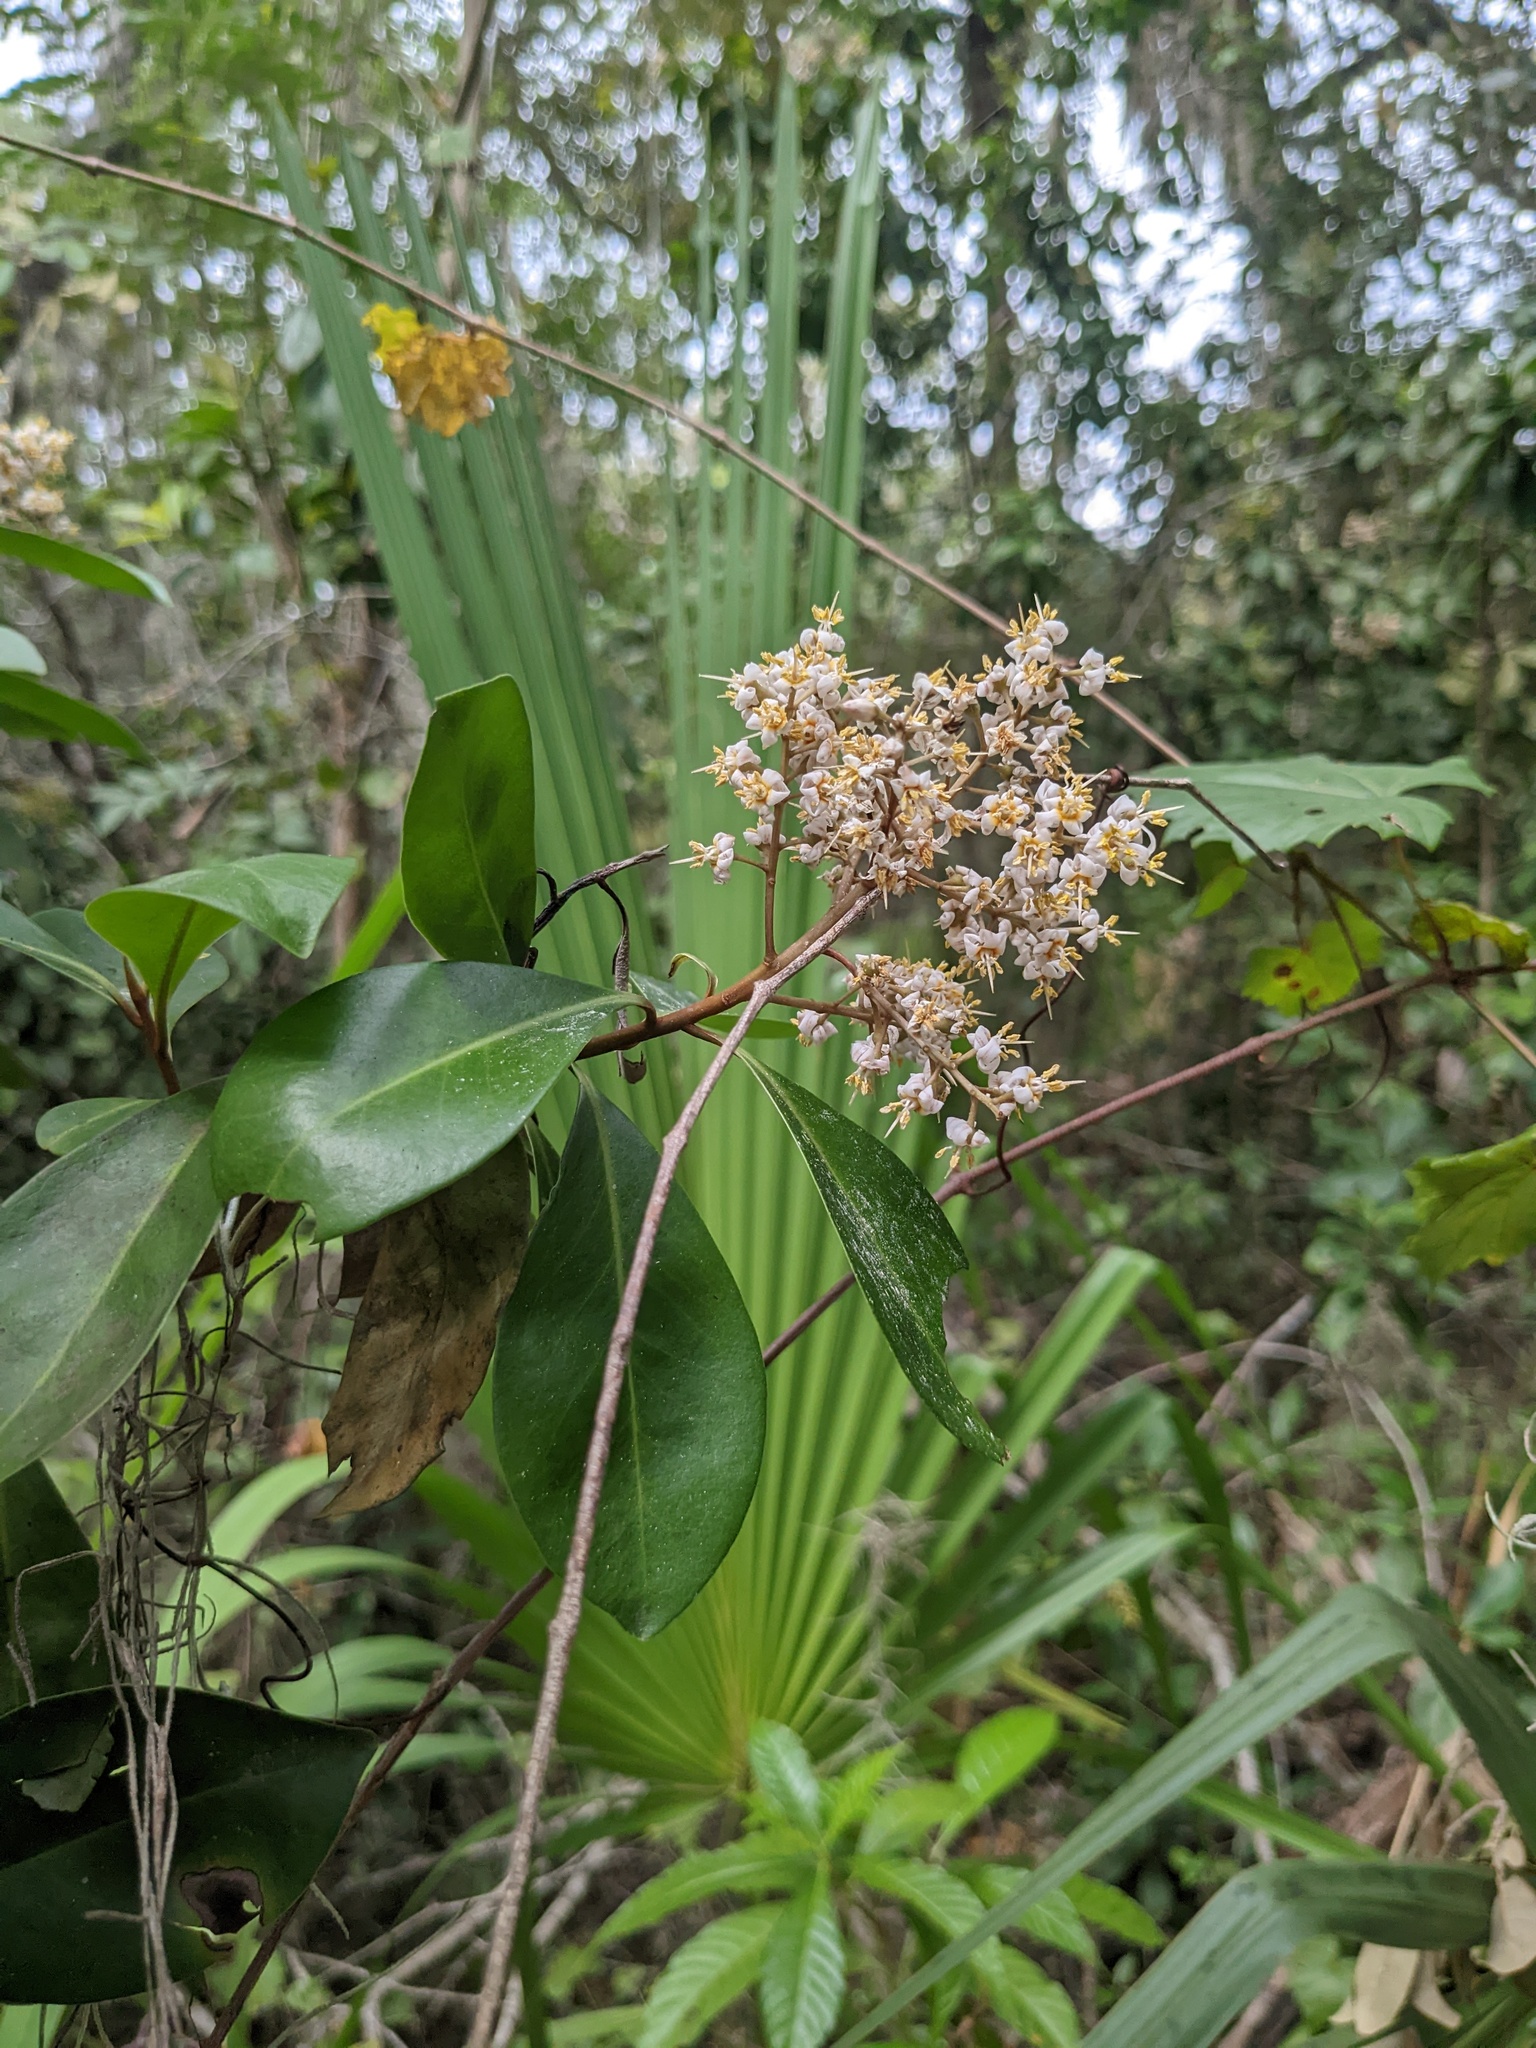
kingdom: Plantae
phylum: Tracheophyta
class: Magnoliopsida
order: Ericales
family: Primulaceae
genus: Ardisia
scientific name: Ardisia escallonioides
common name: Island marlberry
